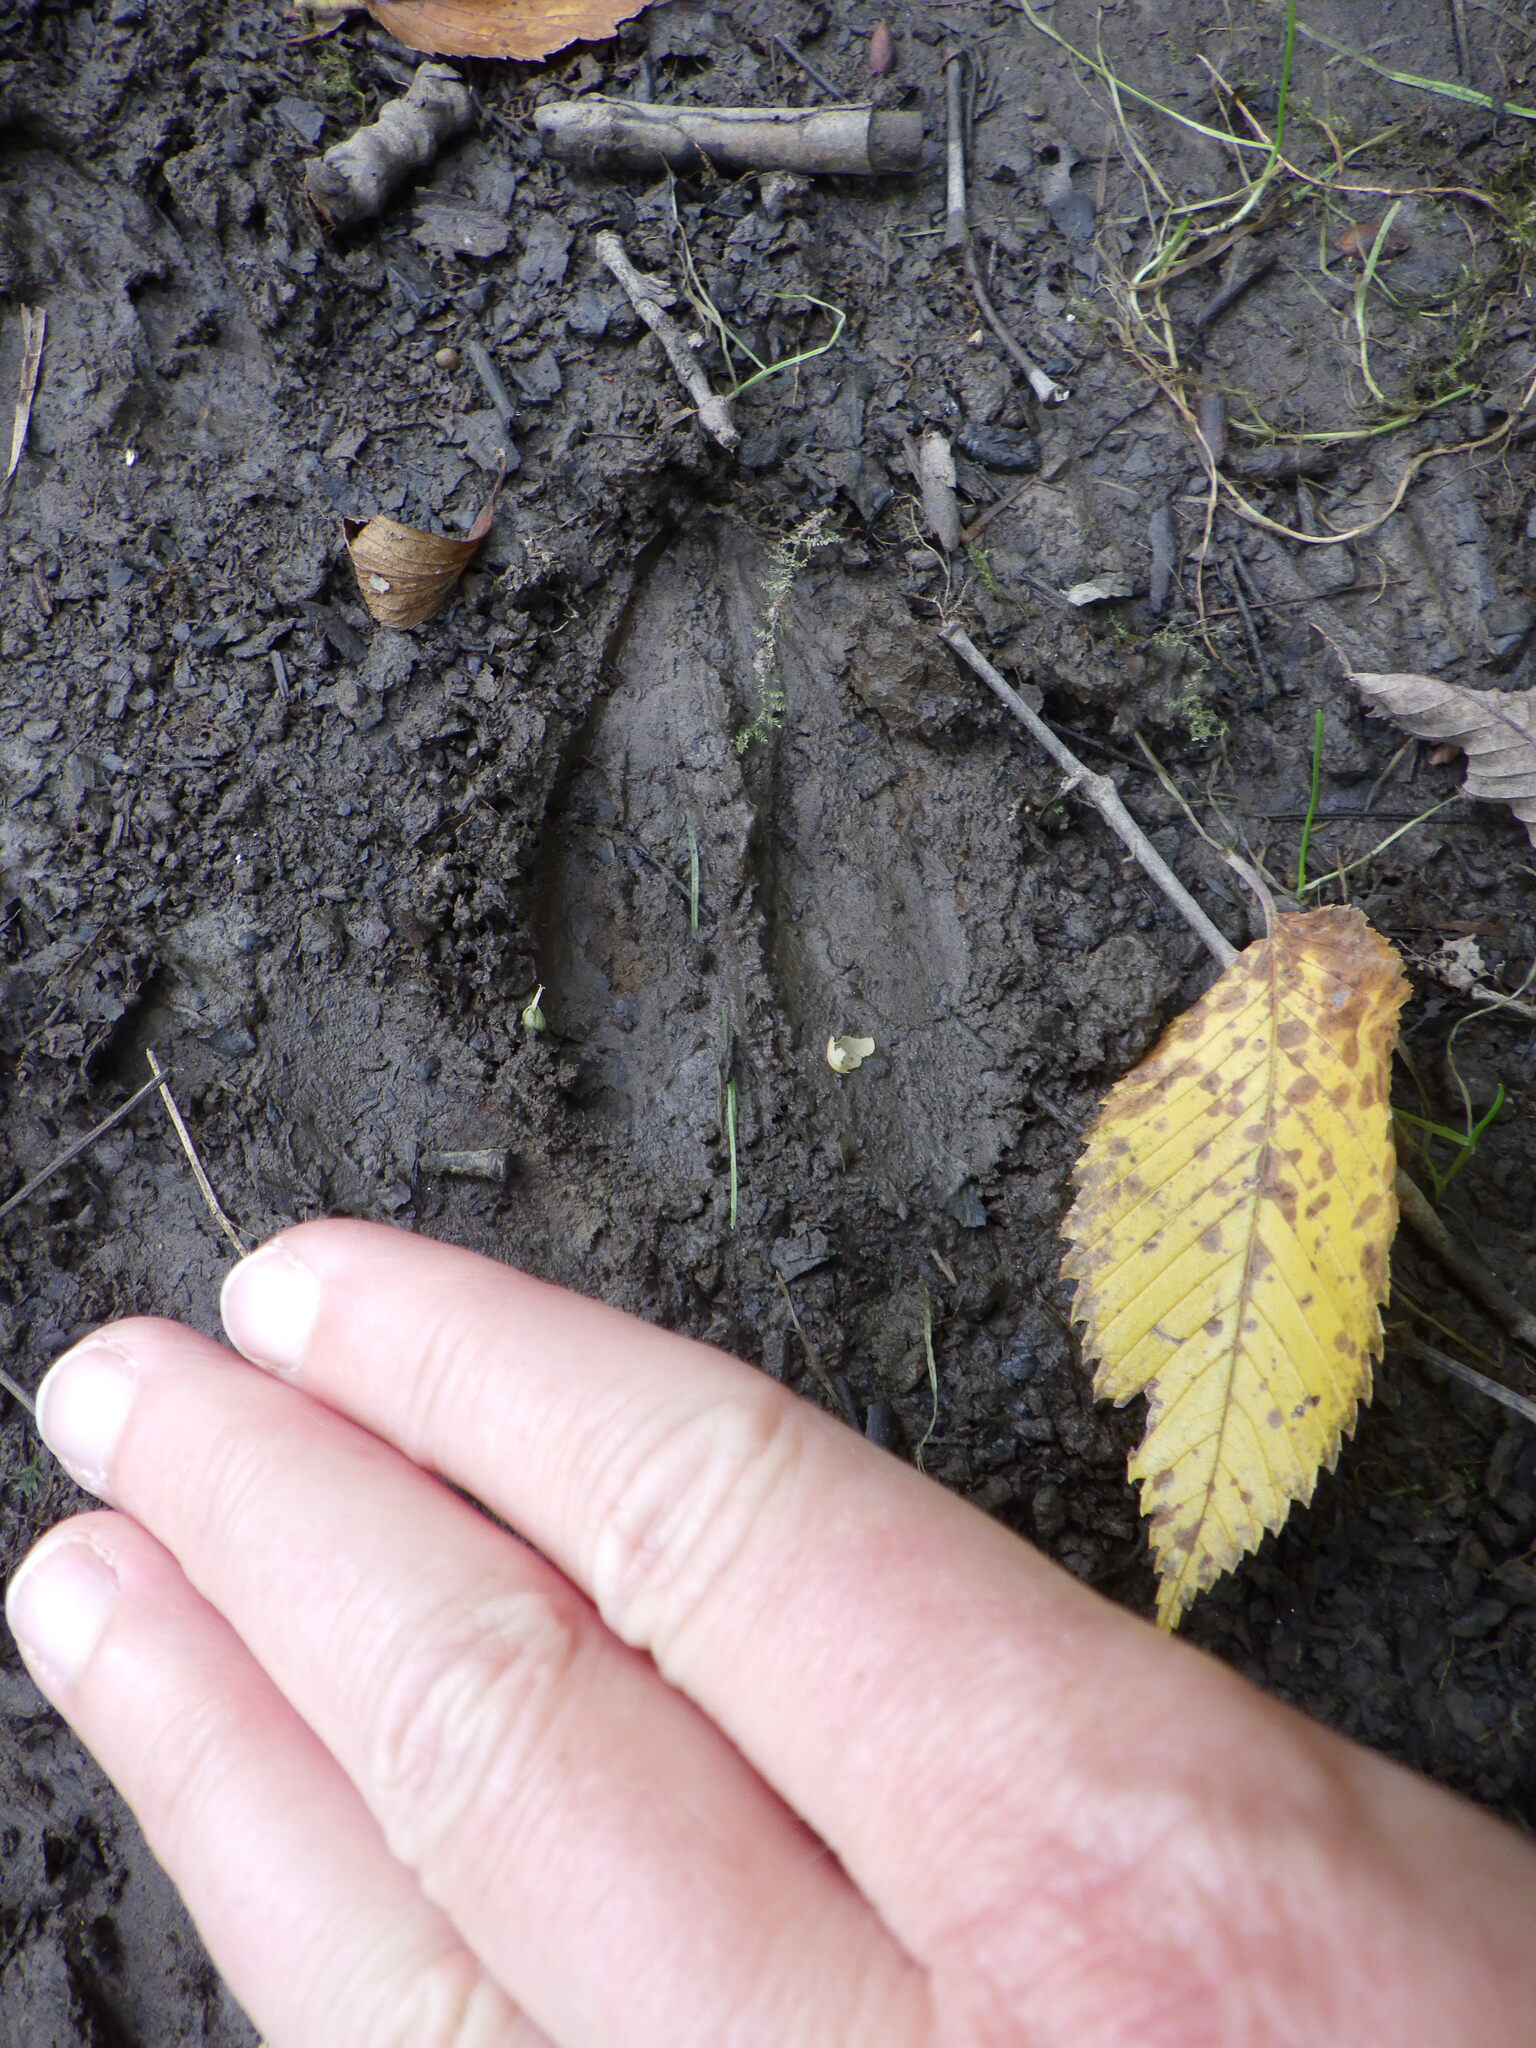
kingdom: Animalia
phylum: Chordata
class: Mammalia
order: Artiodactyla
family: Cervidae
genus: Odocoileus
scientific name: Odocoileus virginianus
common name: White-tailed deer
